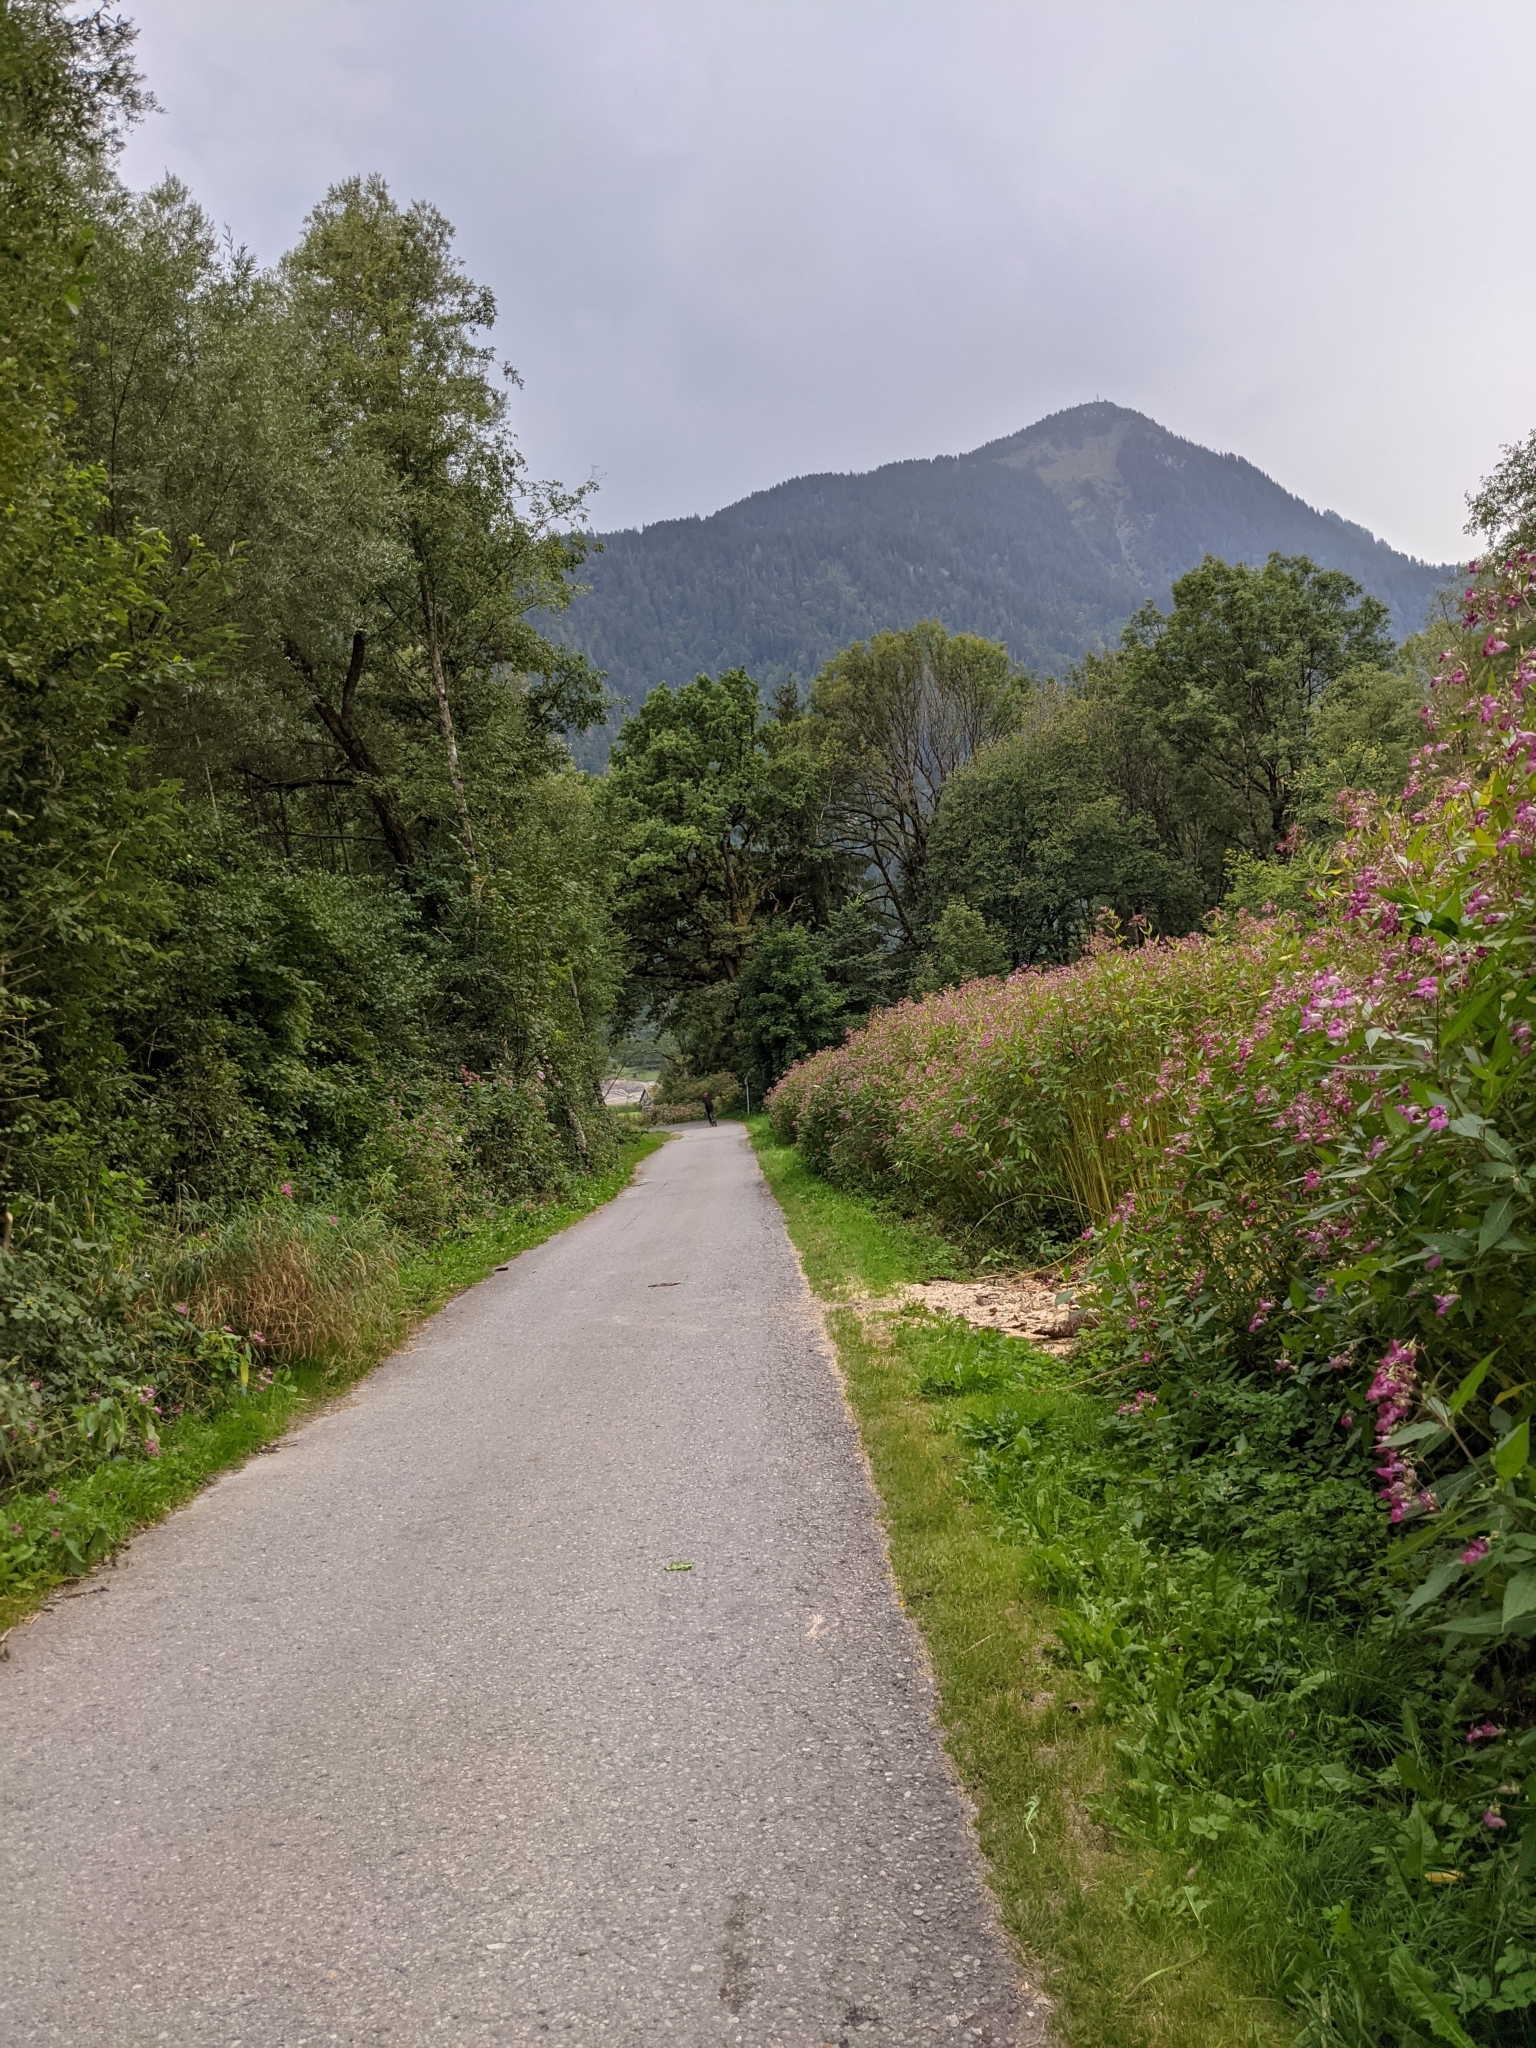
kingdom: Plantae
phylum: Tracheophyta
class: Magnoliopsida
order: Ericales
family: Balsaminaceae
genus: Impatiens
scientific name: Impatiens glandulifera
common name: Himalayan balsam
